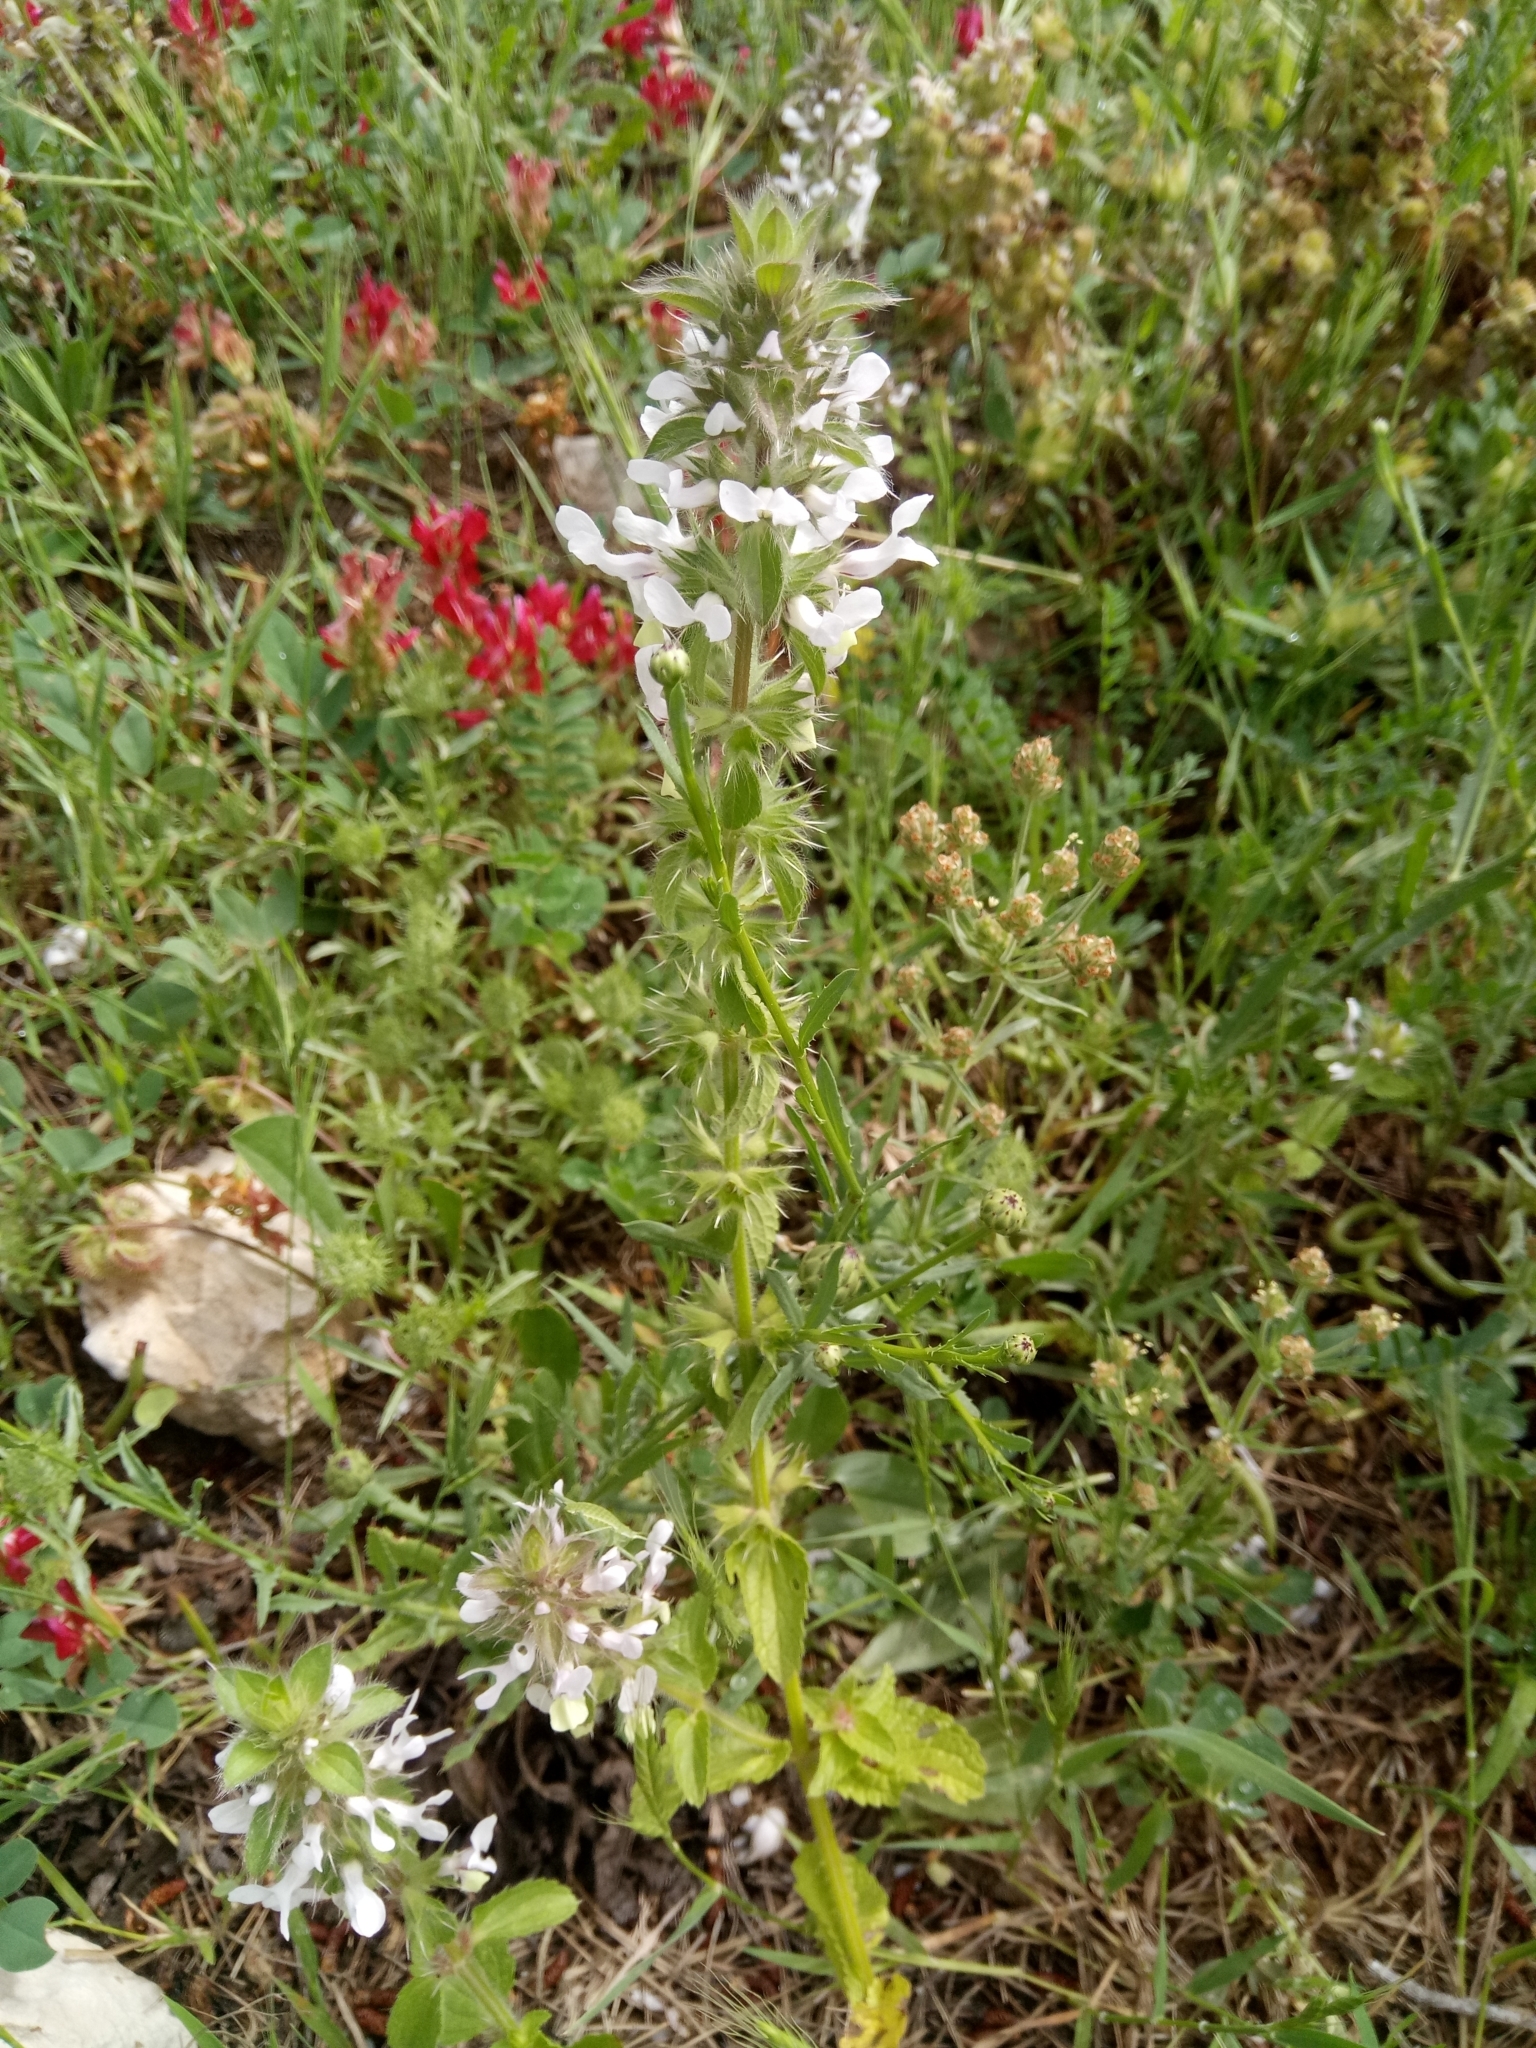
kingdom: Plantae
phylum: Tracheophyta
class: Magnoliopsida
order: Lamiales
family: Lamiaceae
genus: Stachys
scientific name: Stachys ocymastrum
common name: Italian hedgenettle
